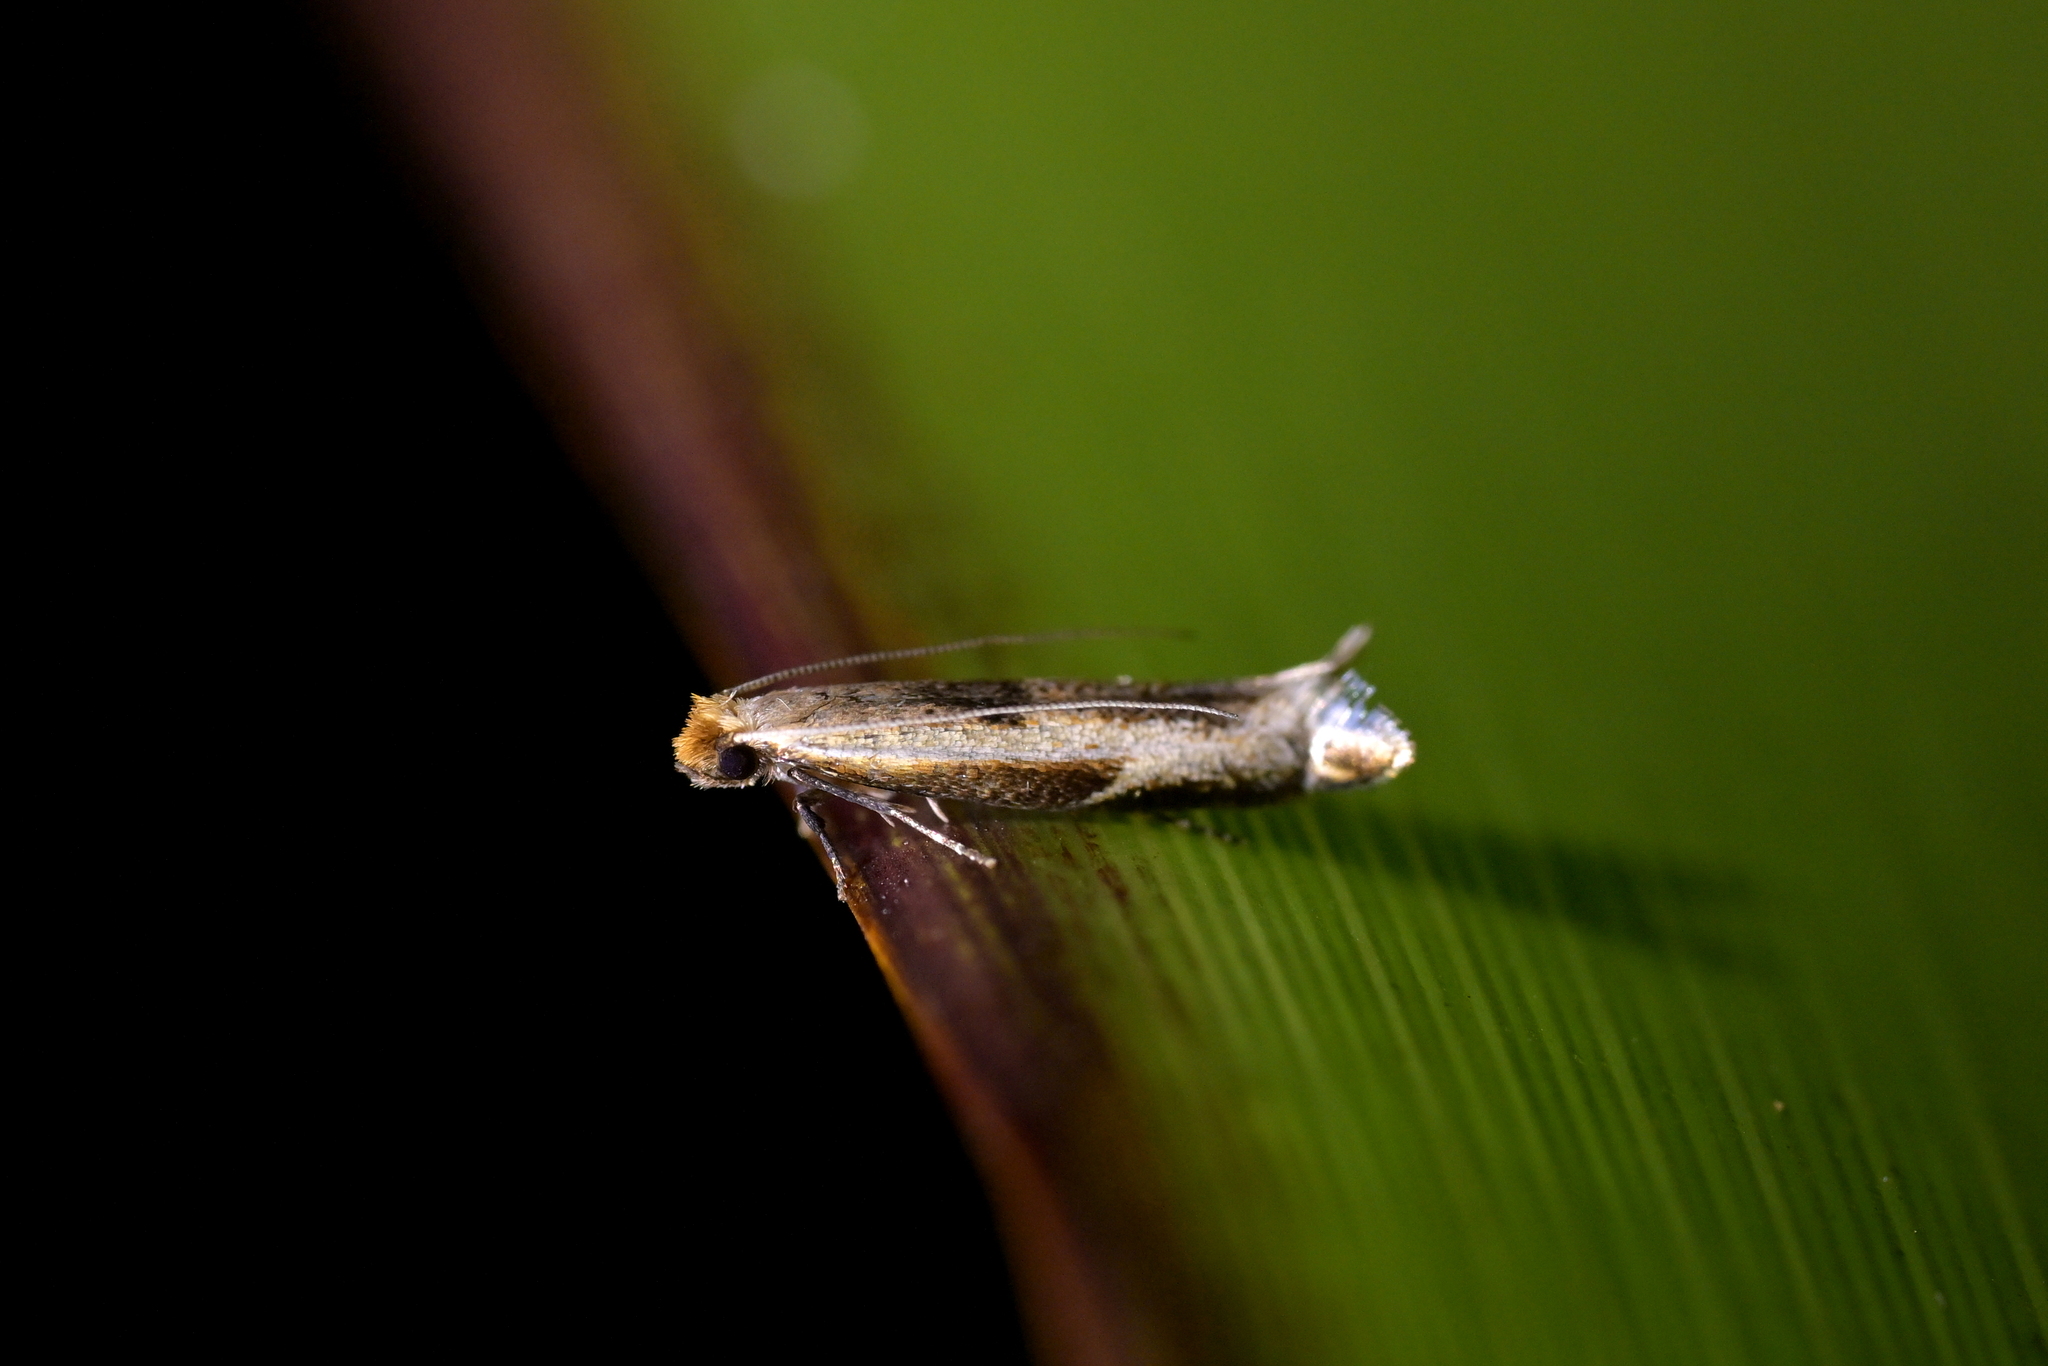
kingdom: Animalia
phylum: Arthropoda
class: Insecta
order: Lepidoptera
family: Tineidae
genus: Erechthias
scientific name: Erechthias charadrota
